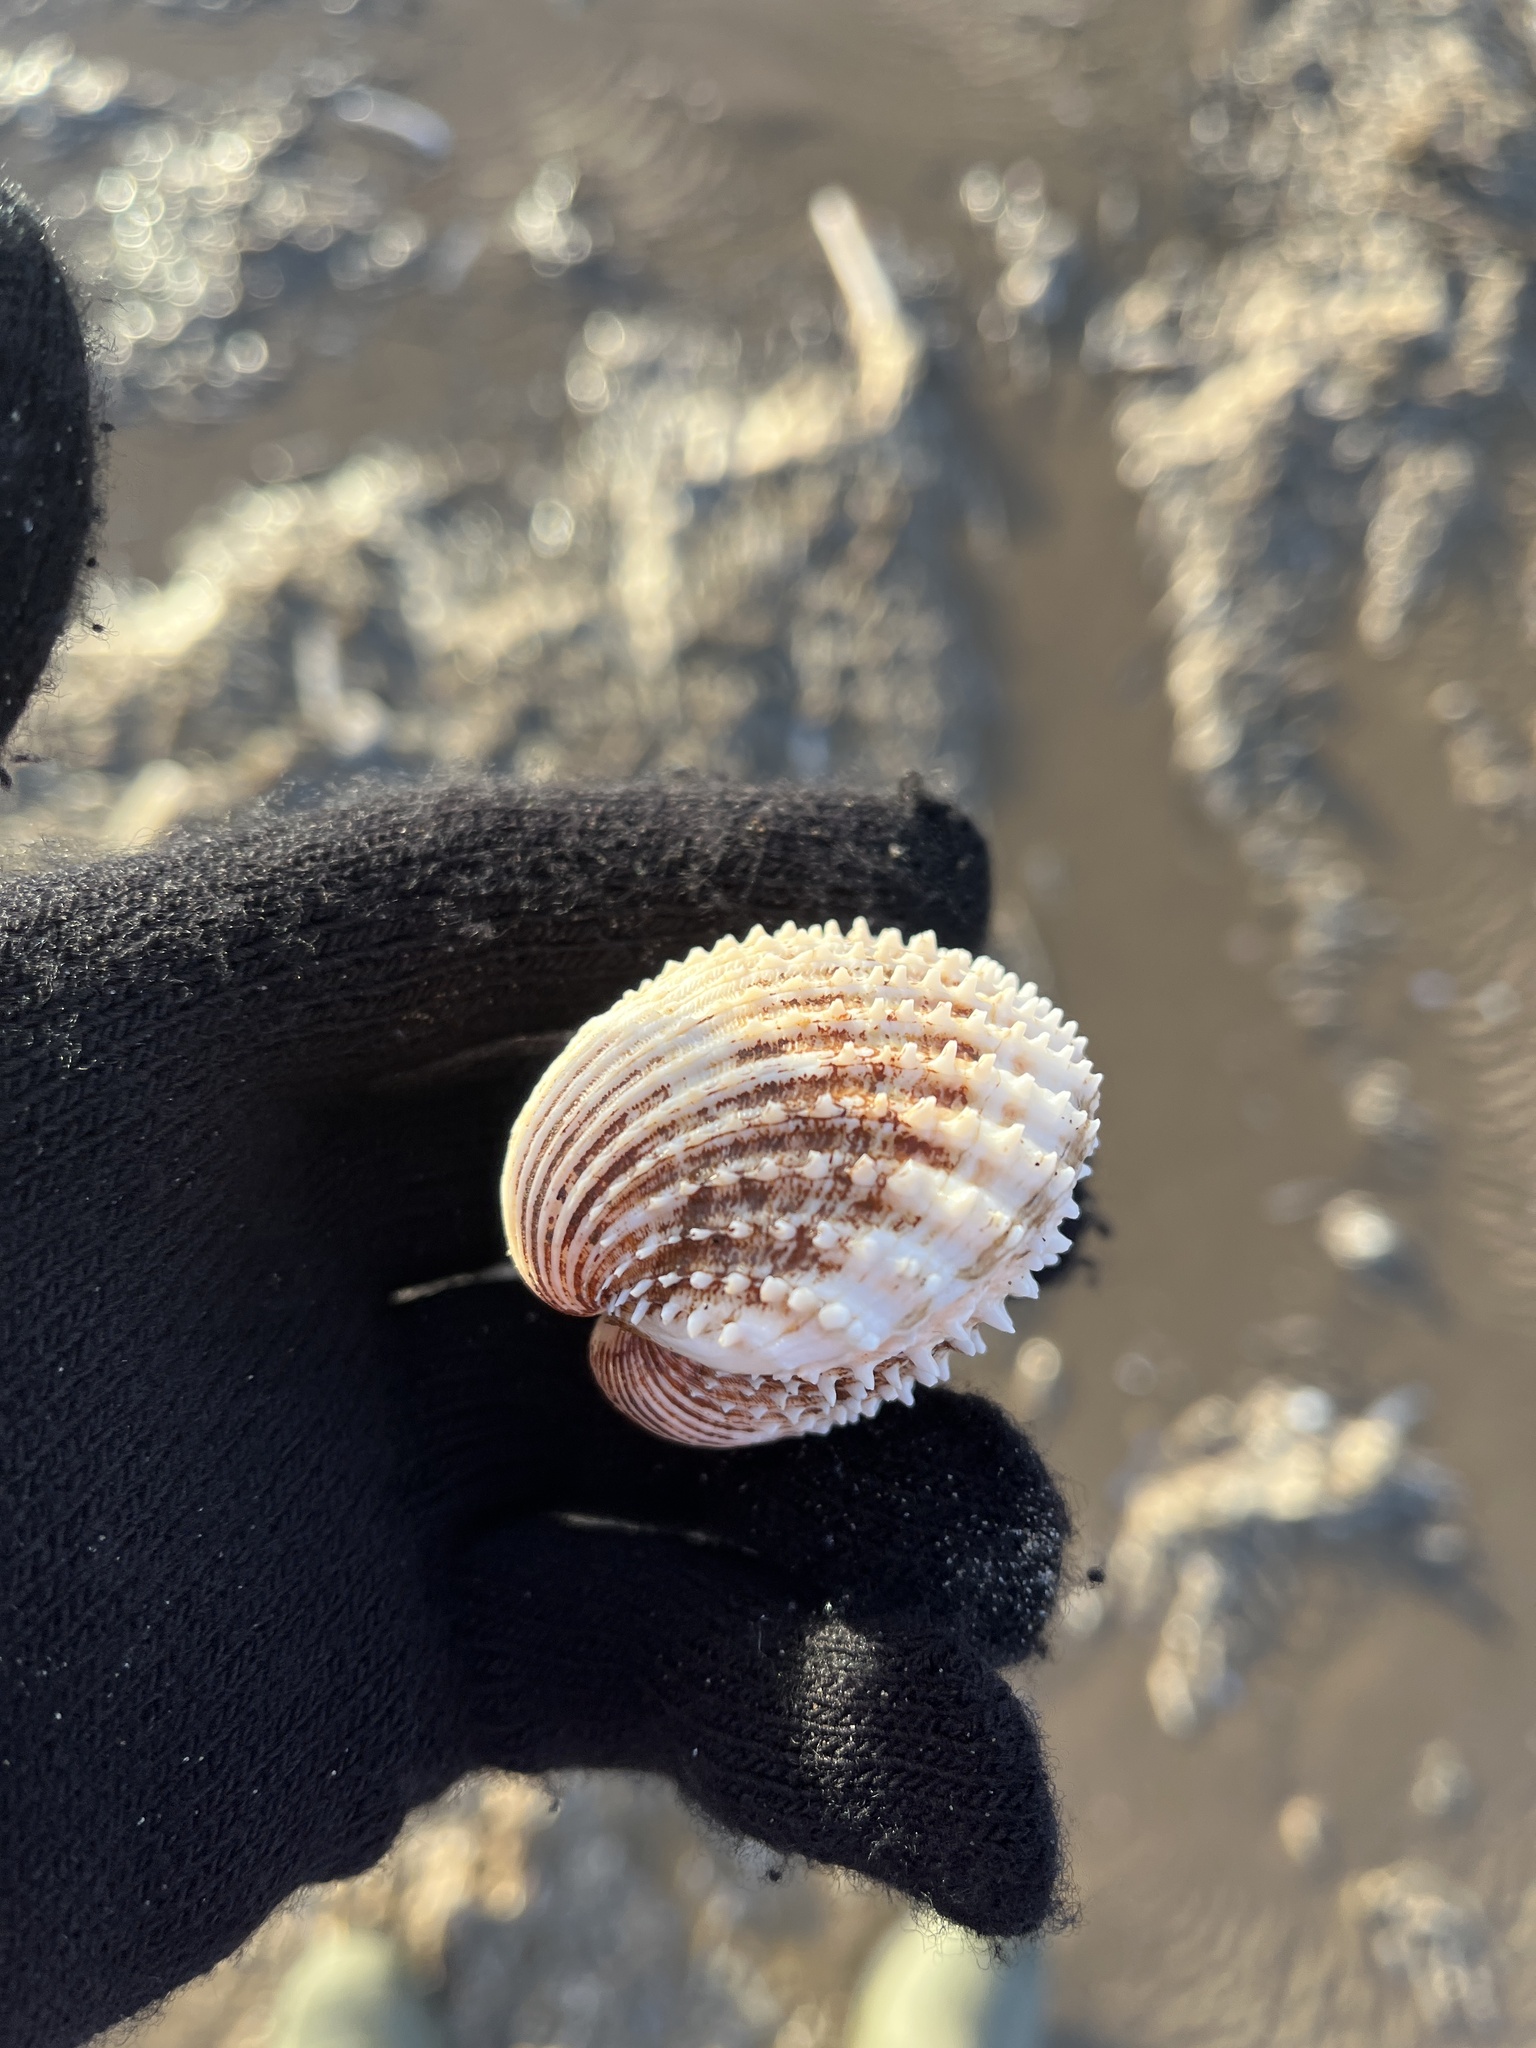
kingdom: Animalia
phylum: Mollusca
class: Bivalvia
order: Cardiida
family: Cardiidae
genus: Acanthocardia
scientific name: Acanthocardia echinata
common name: Prickly cockle
